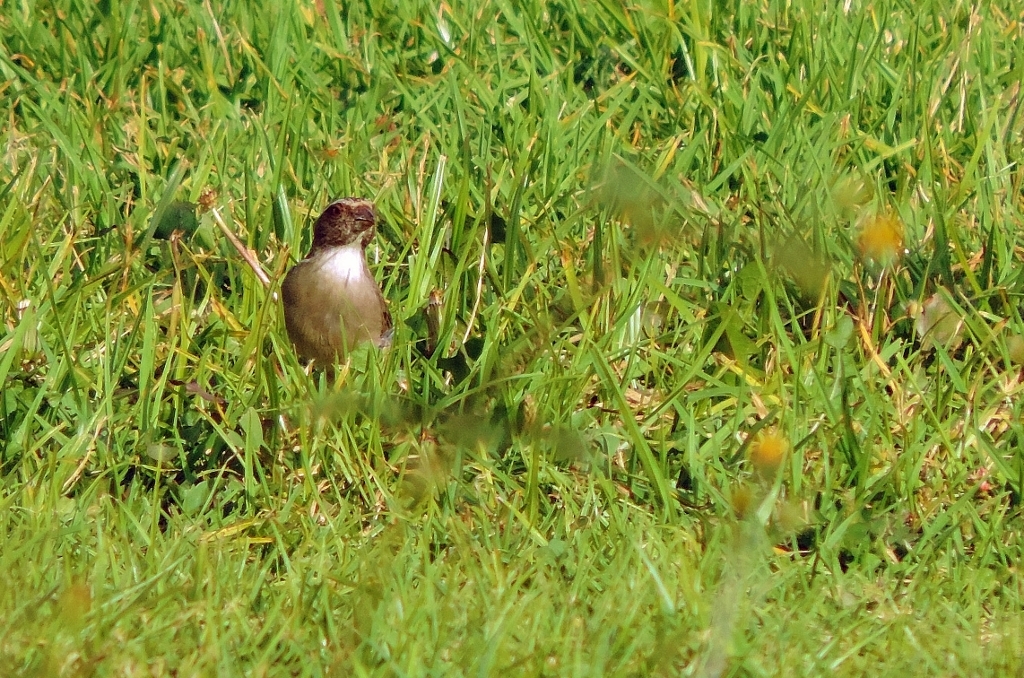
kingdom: Animalia
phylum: Chordata
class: Aves
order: Passeriformes
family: Fringillidae
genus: Crithagra
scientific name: Crithagra gularis
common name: Streaky-headed seedeater
